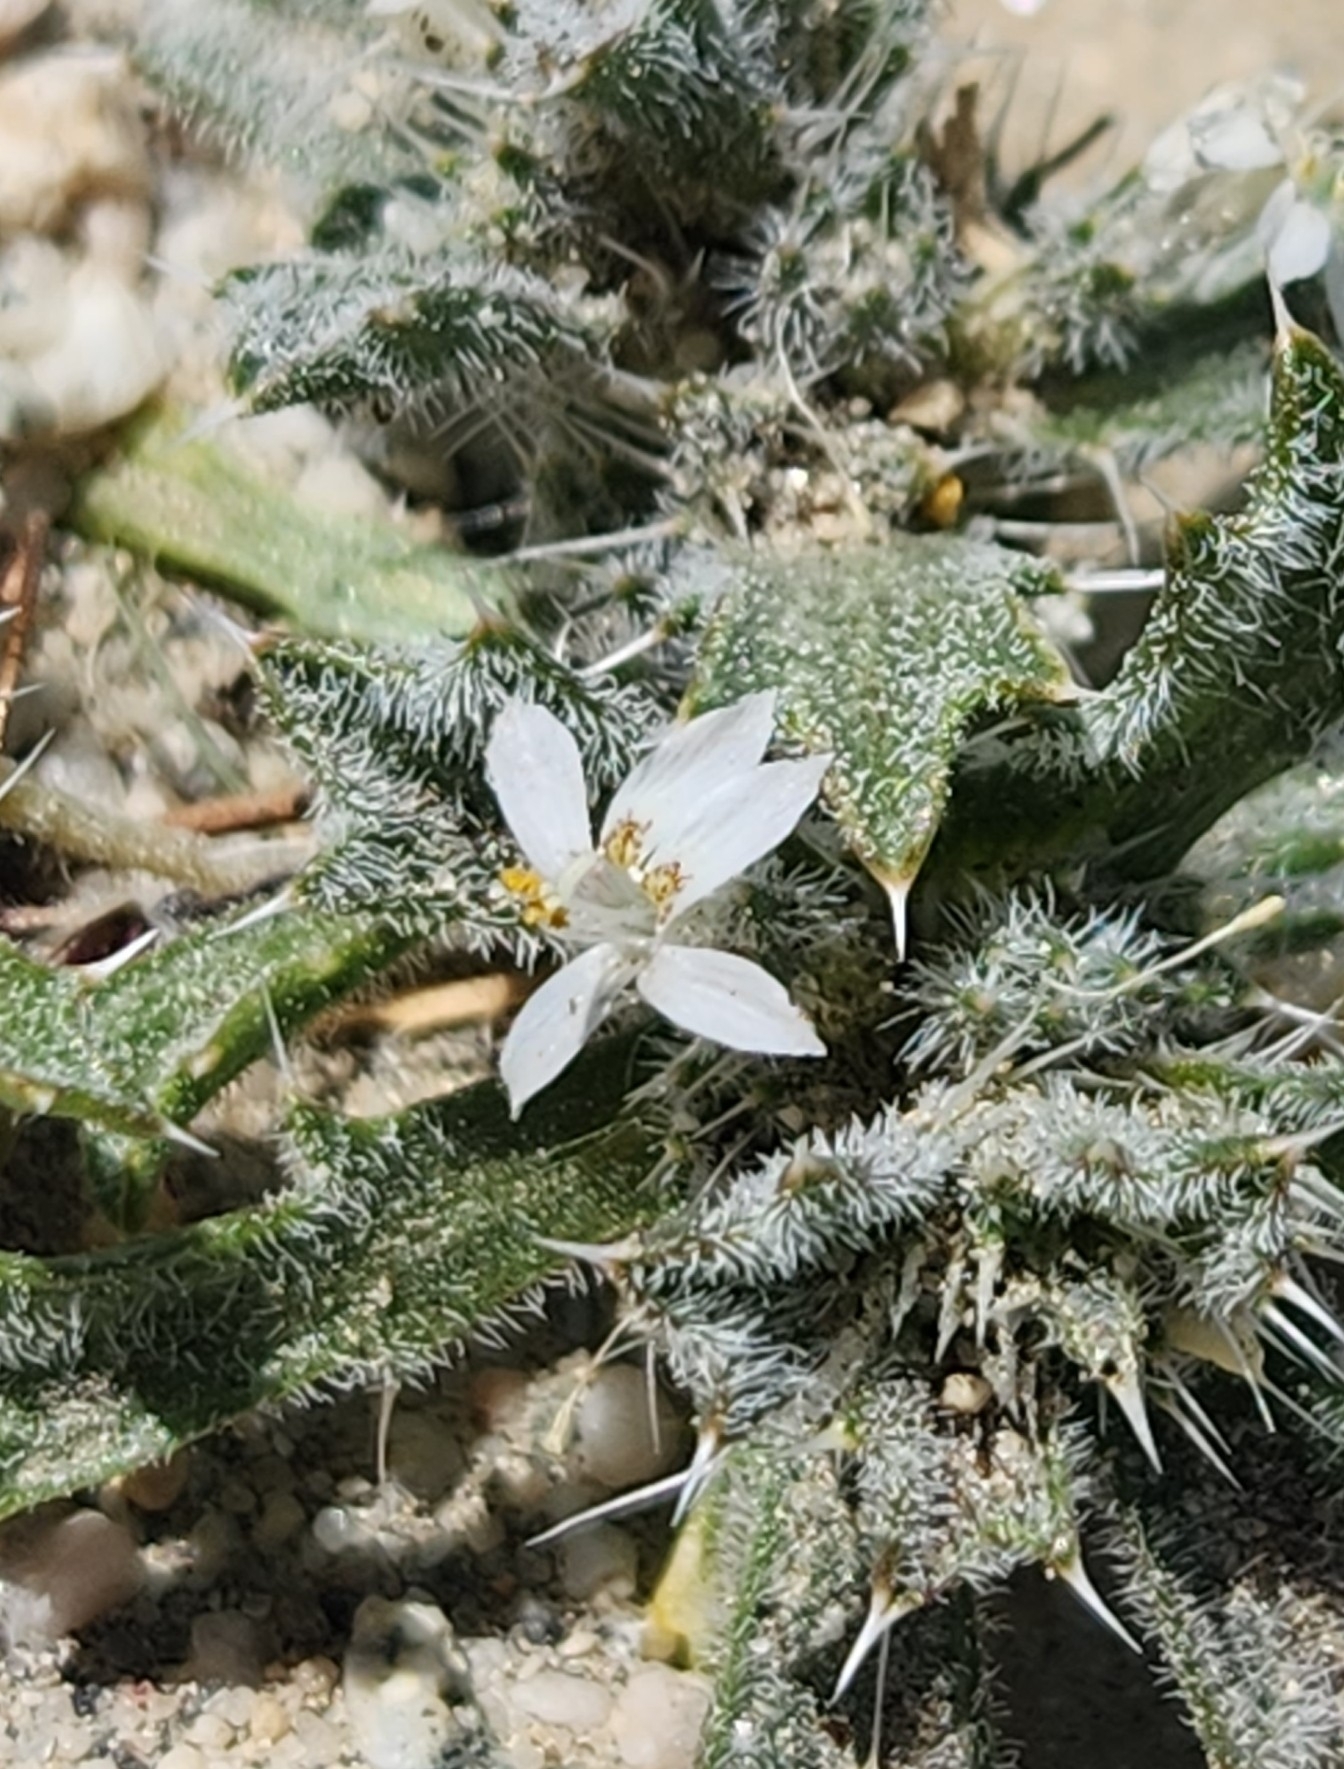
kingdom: Plantae
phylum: Tracheophyta
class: Magnoliopsida
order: Ericales
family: Polemoniaceae
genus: Loeseliastrum
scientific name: Loeseliastrum schottii
